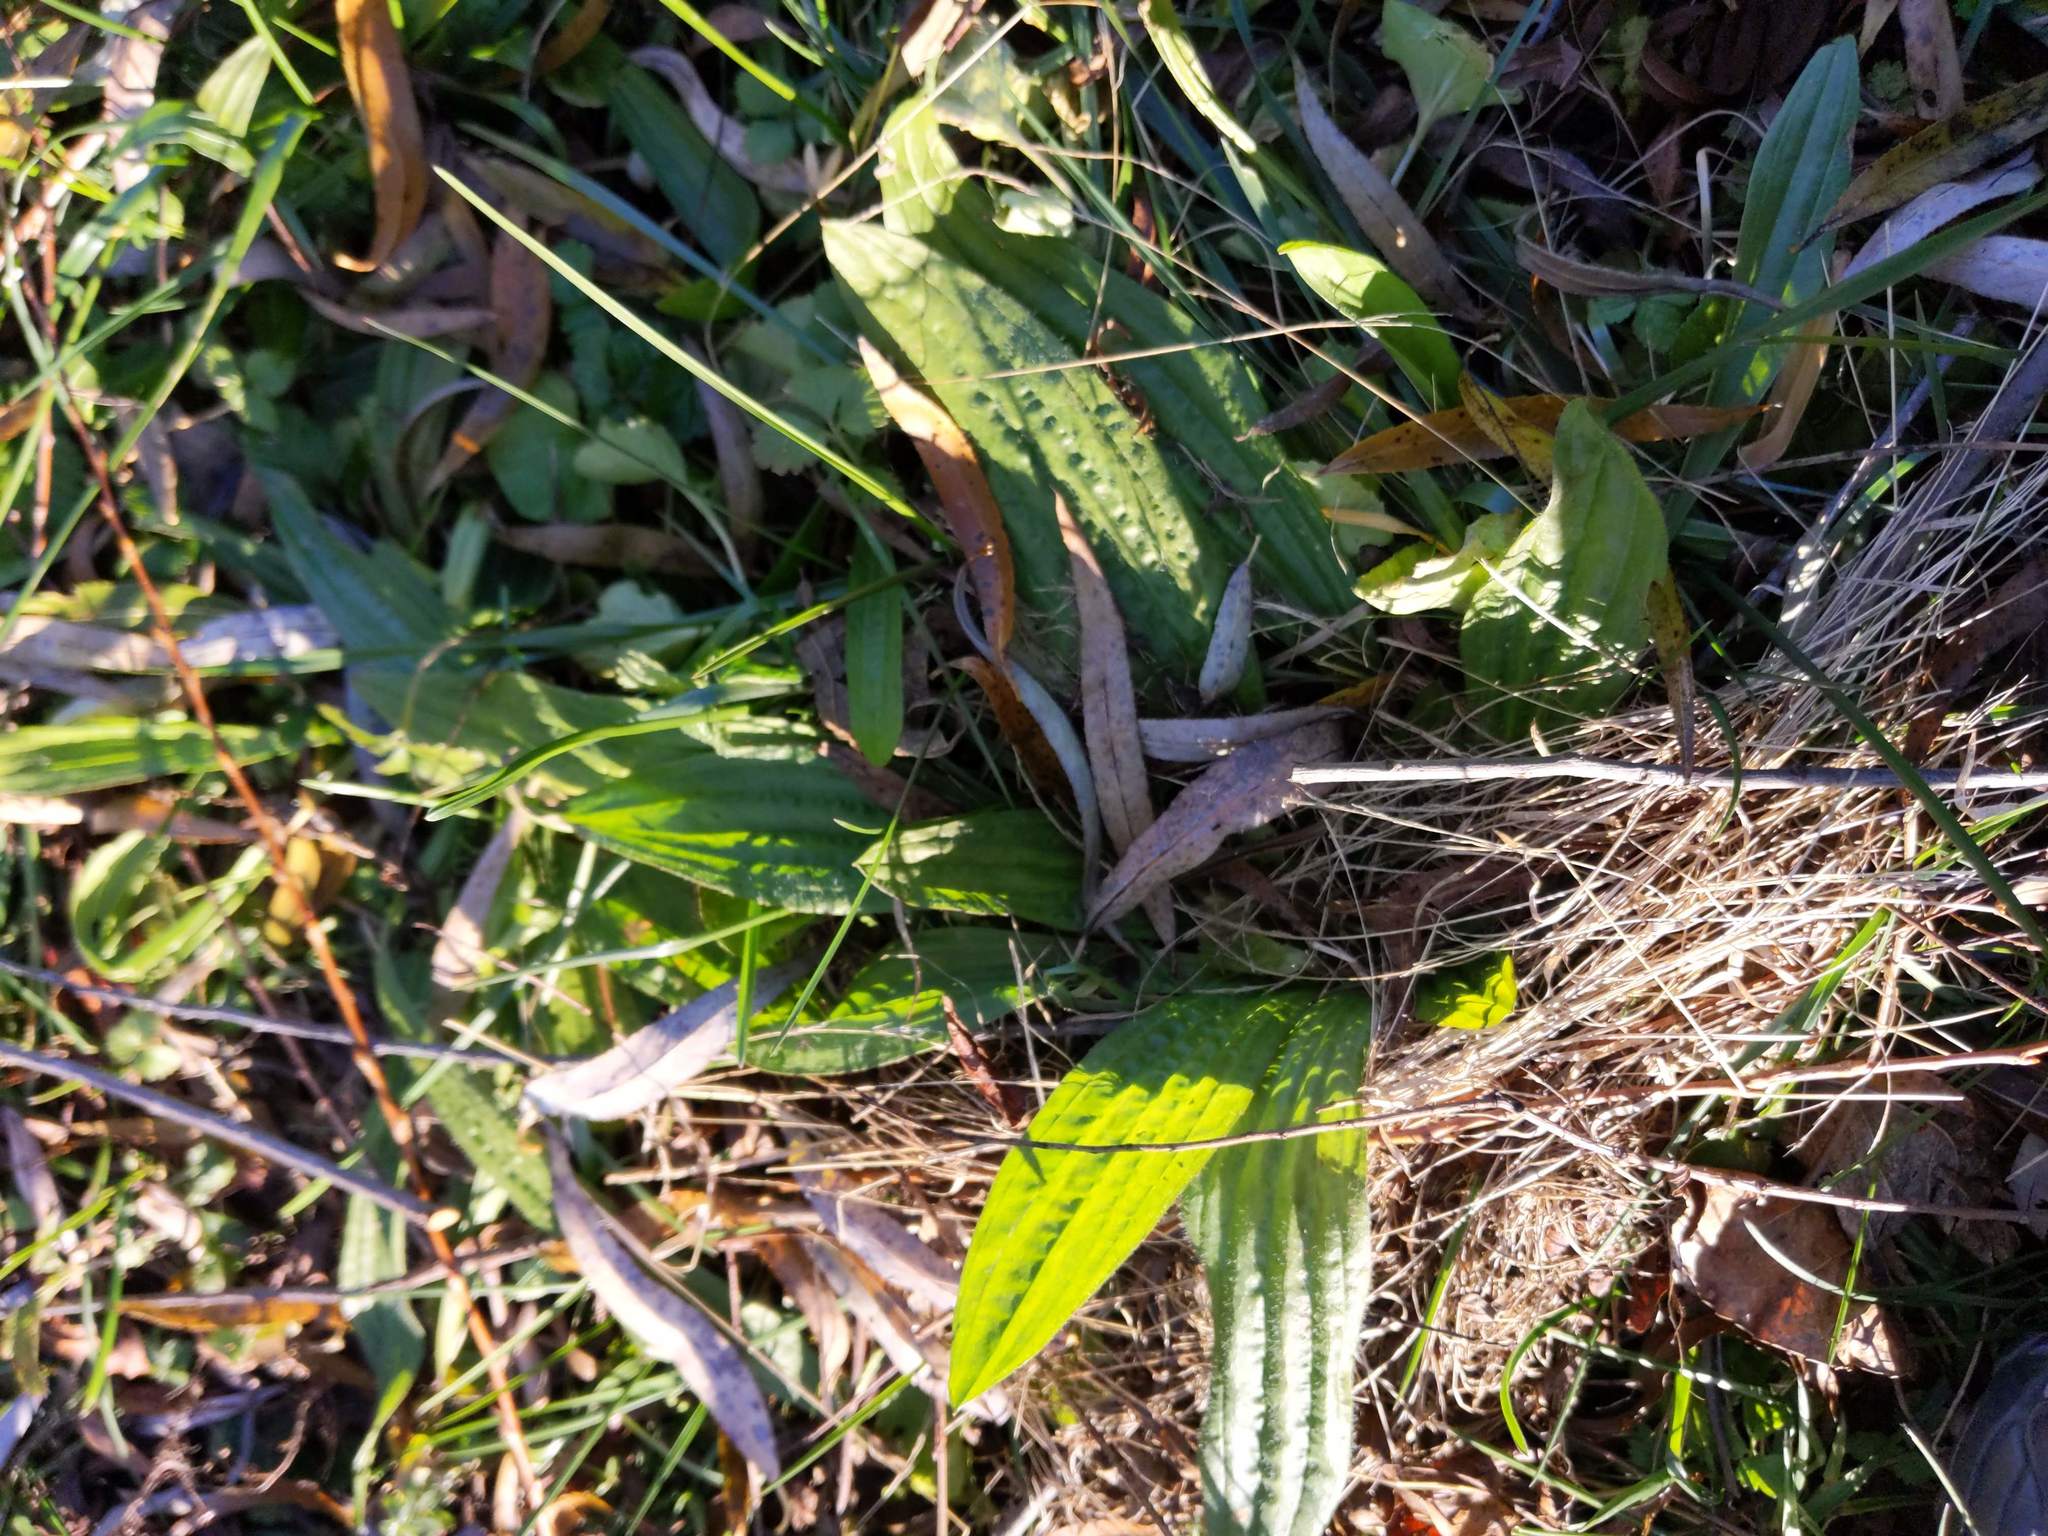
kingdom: Plantae
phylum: Tracheophyta
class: Magnoliopsida
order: Lamiales
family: Plantaginaceae
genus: Plantago
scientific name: Plantago lanceolata
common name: Ribwort plantain
